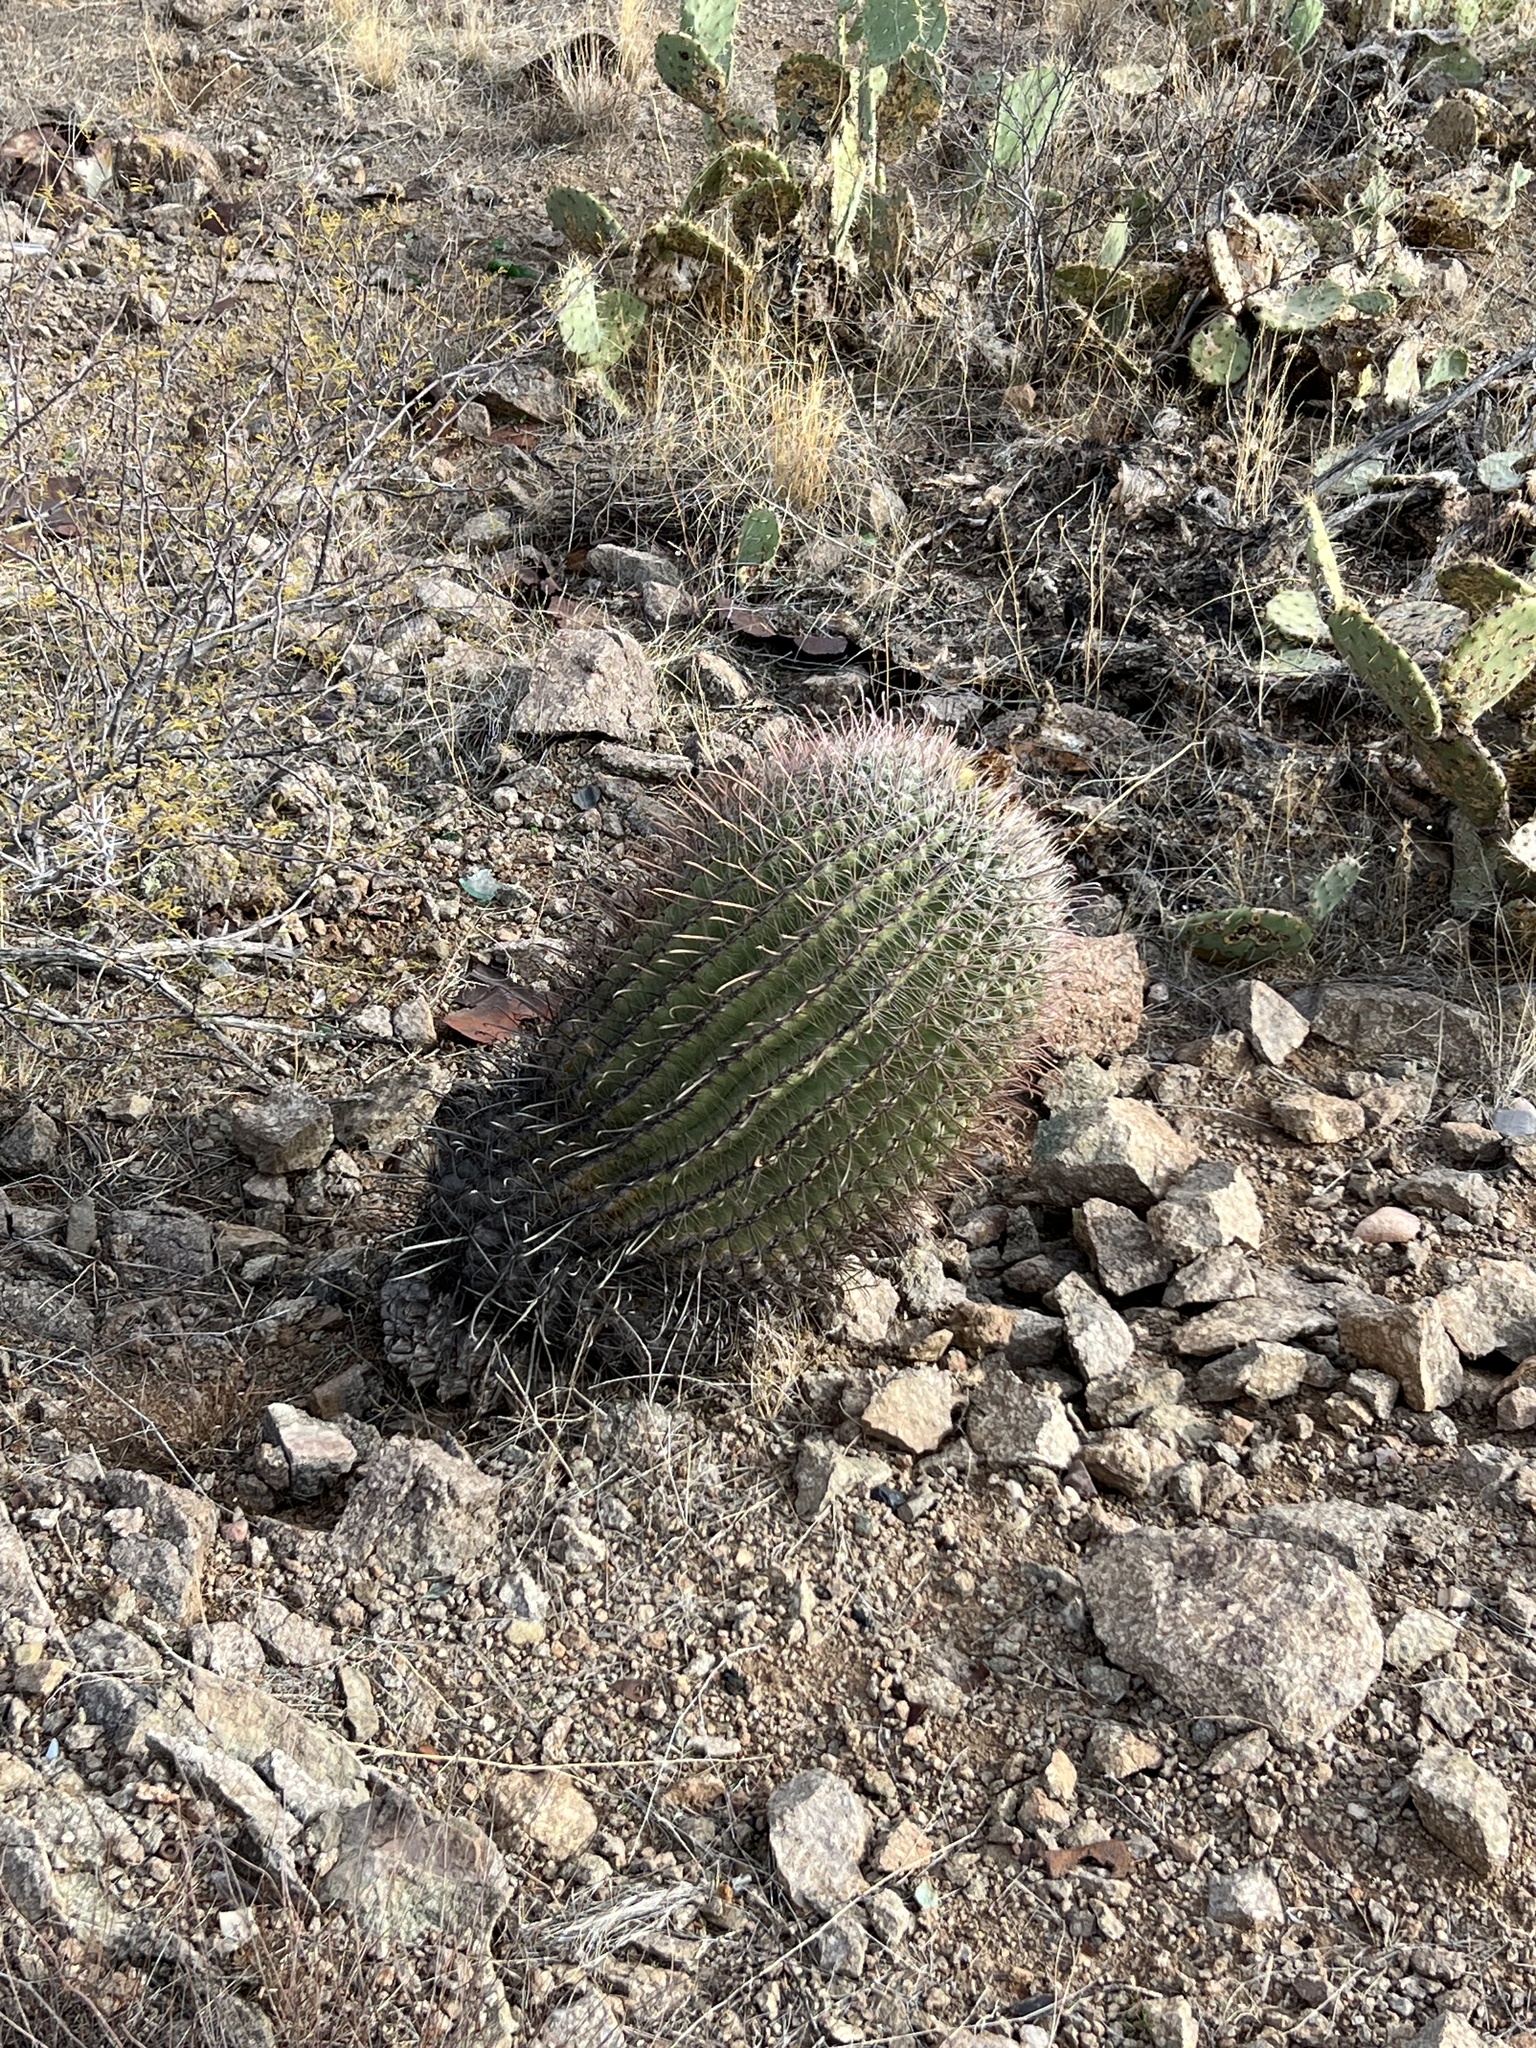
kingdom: Plantae
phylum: Tracheophyta
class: Magnoliopsida
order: Caryophyllales
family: Cactaceae
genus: Ferocactus
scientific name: Ferocactus wislizeni
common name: Candy barrel cactus
